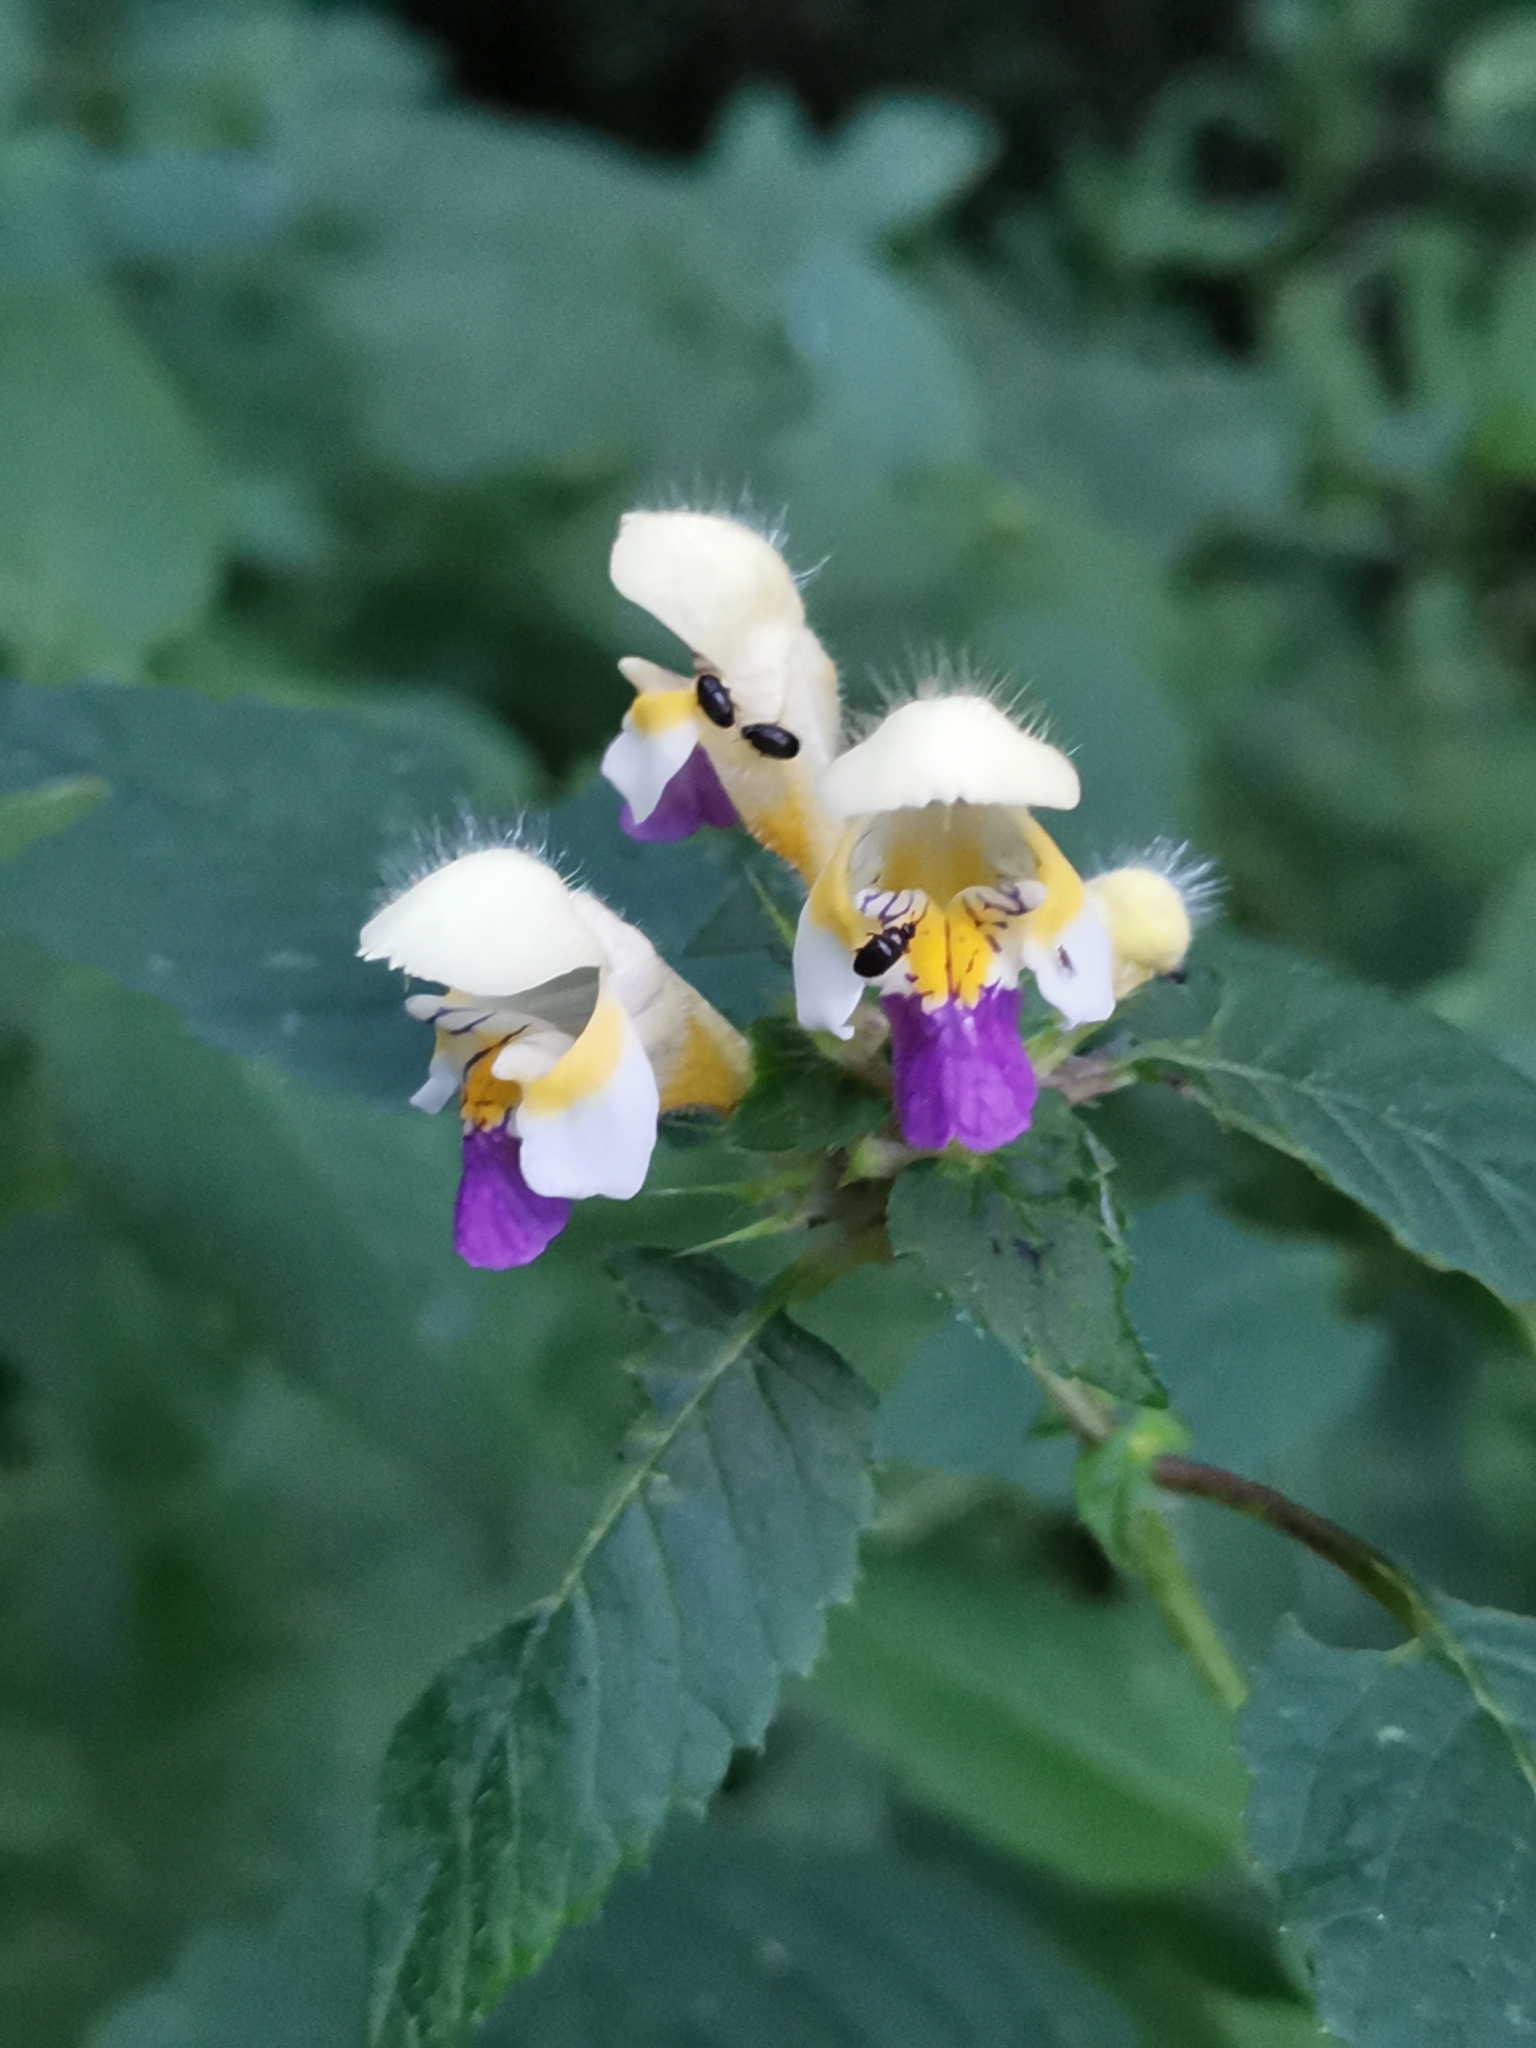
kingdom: Plantae
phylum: Tracheophyta
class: Magnoliopsida
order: Lamiales
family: Lamiaceae
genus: Galeopsis
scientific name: Galeopsis speciosa
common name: Large-flowered hemp-nettle
